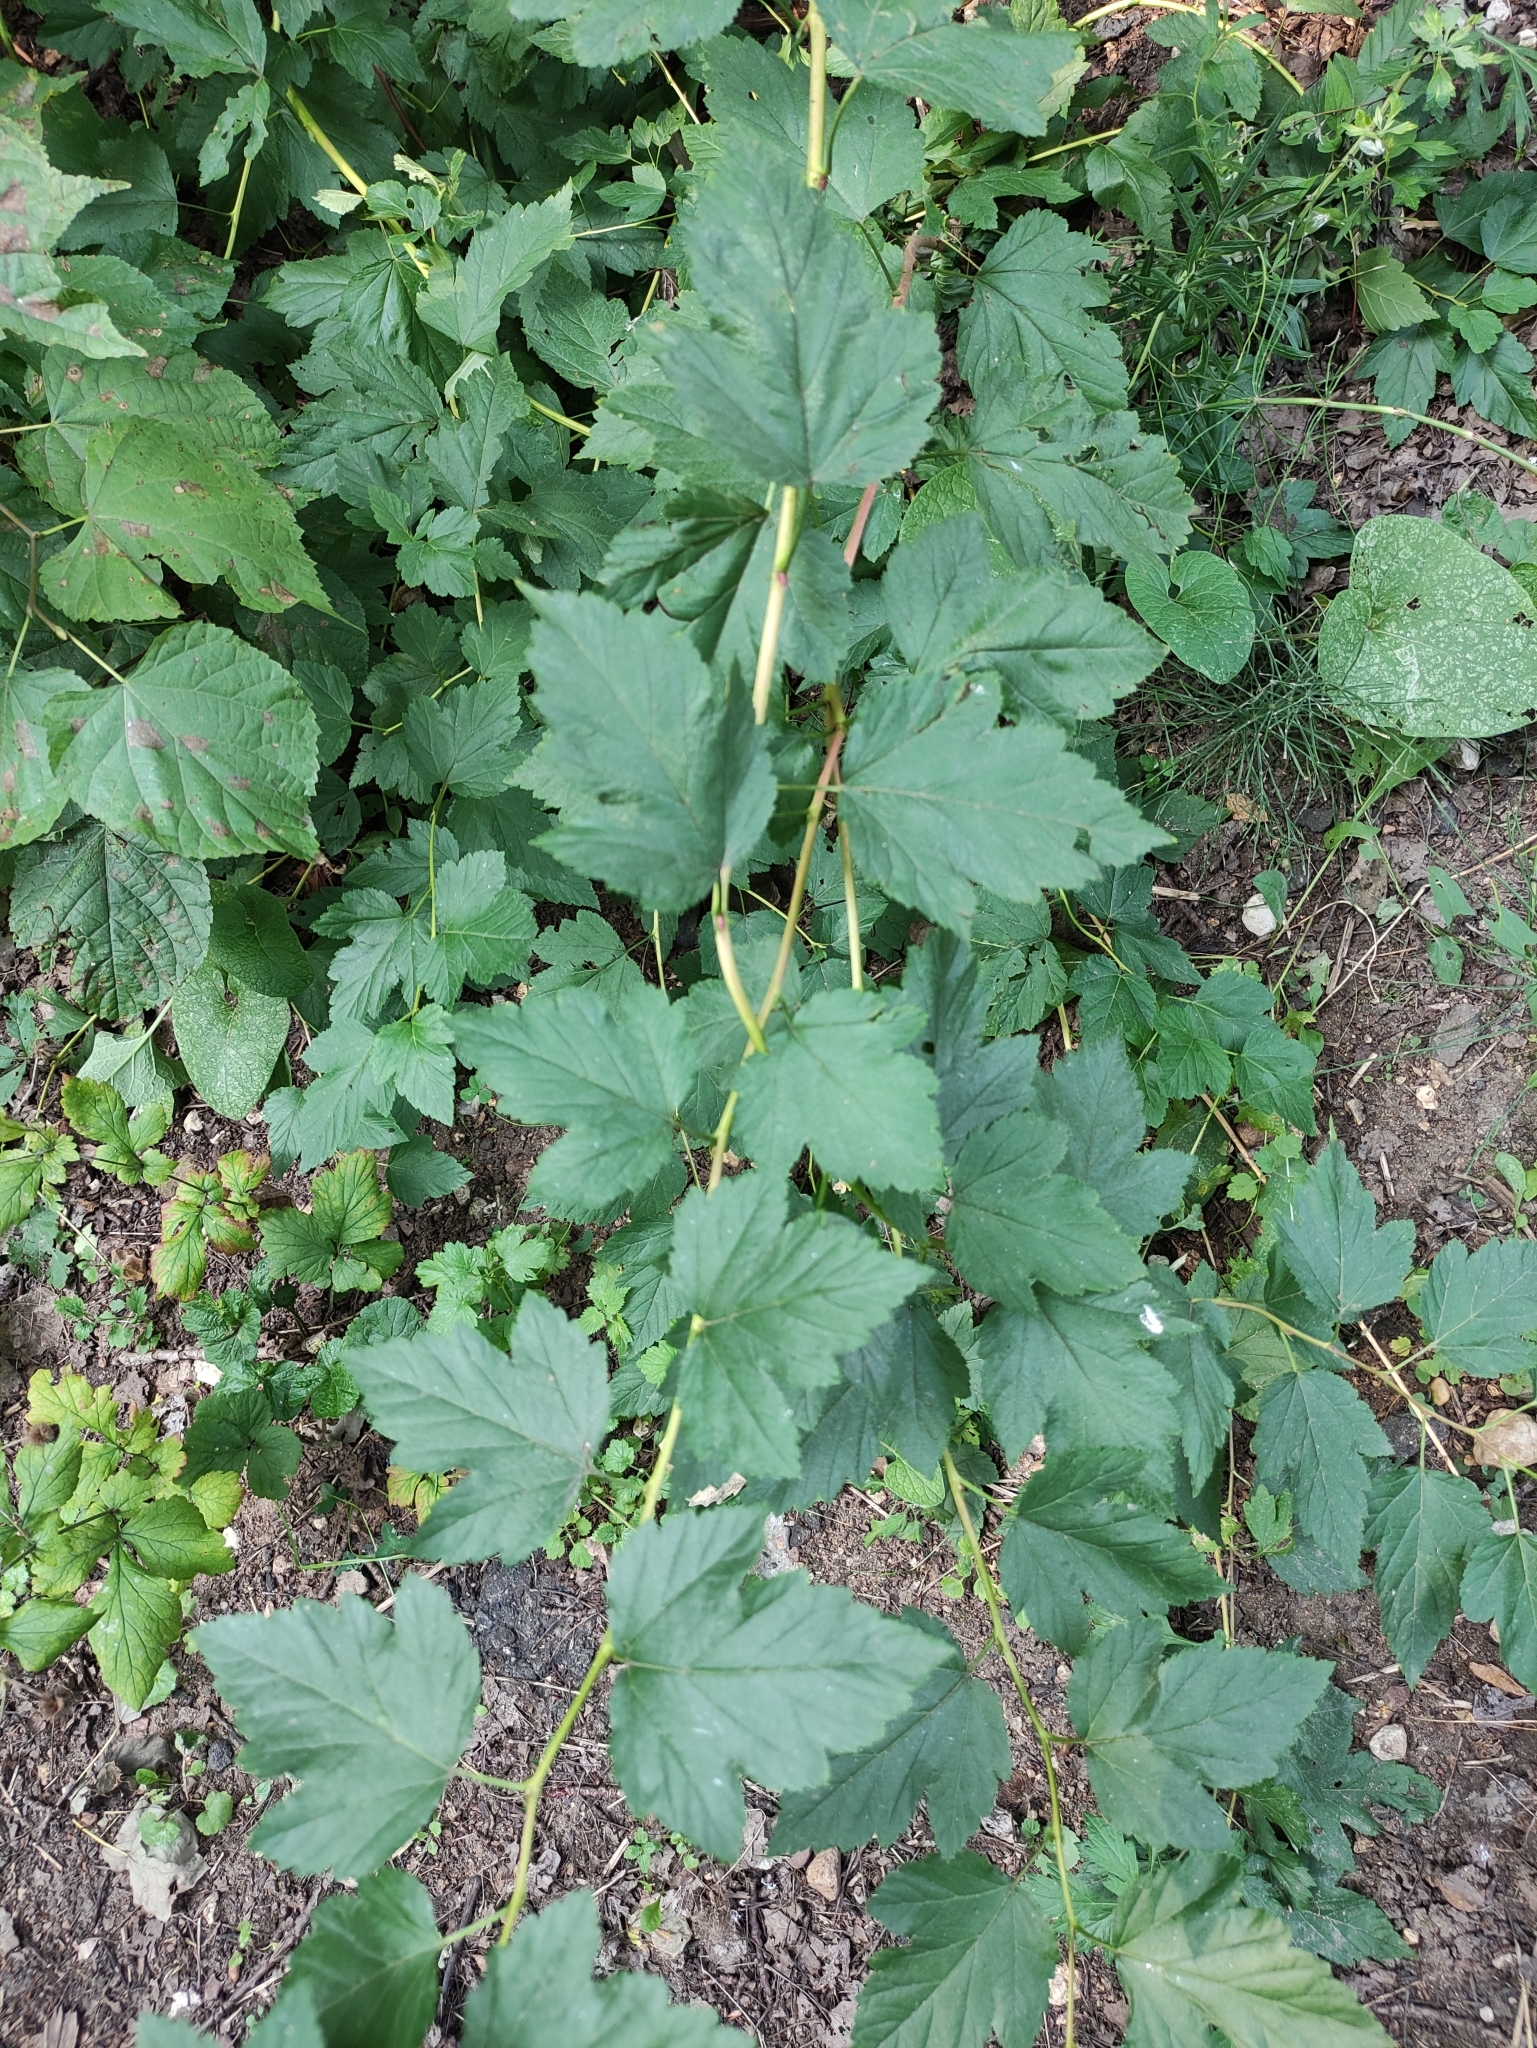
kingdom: Plantae
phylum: Tracheophyta
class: Magnoliopsida
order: Rosales
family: Rosaceae
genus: Physocarpus
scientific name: Physocarpus opulifolius
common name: Ninebark
